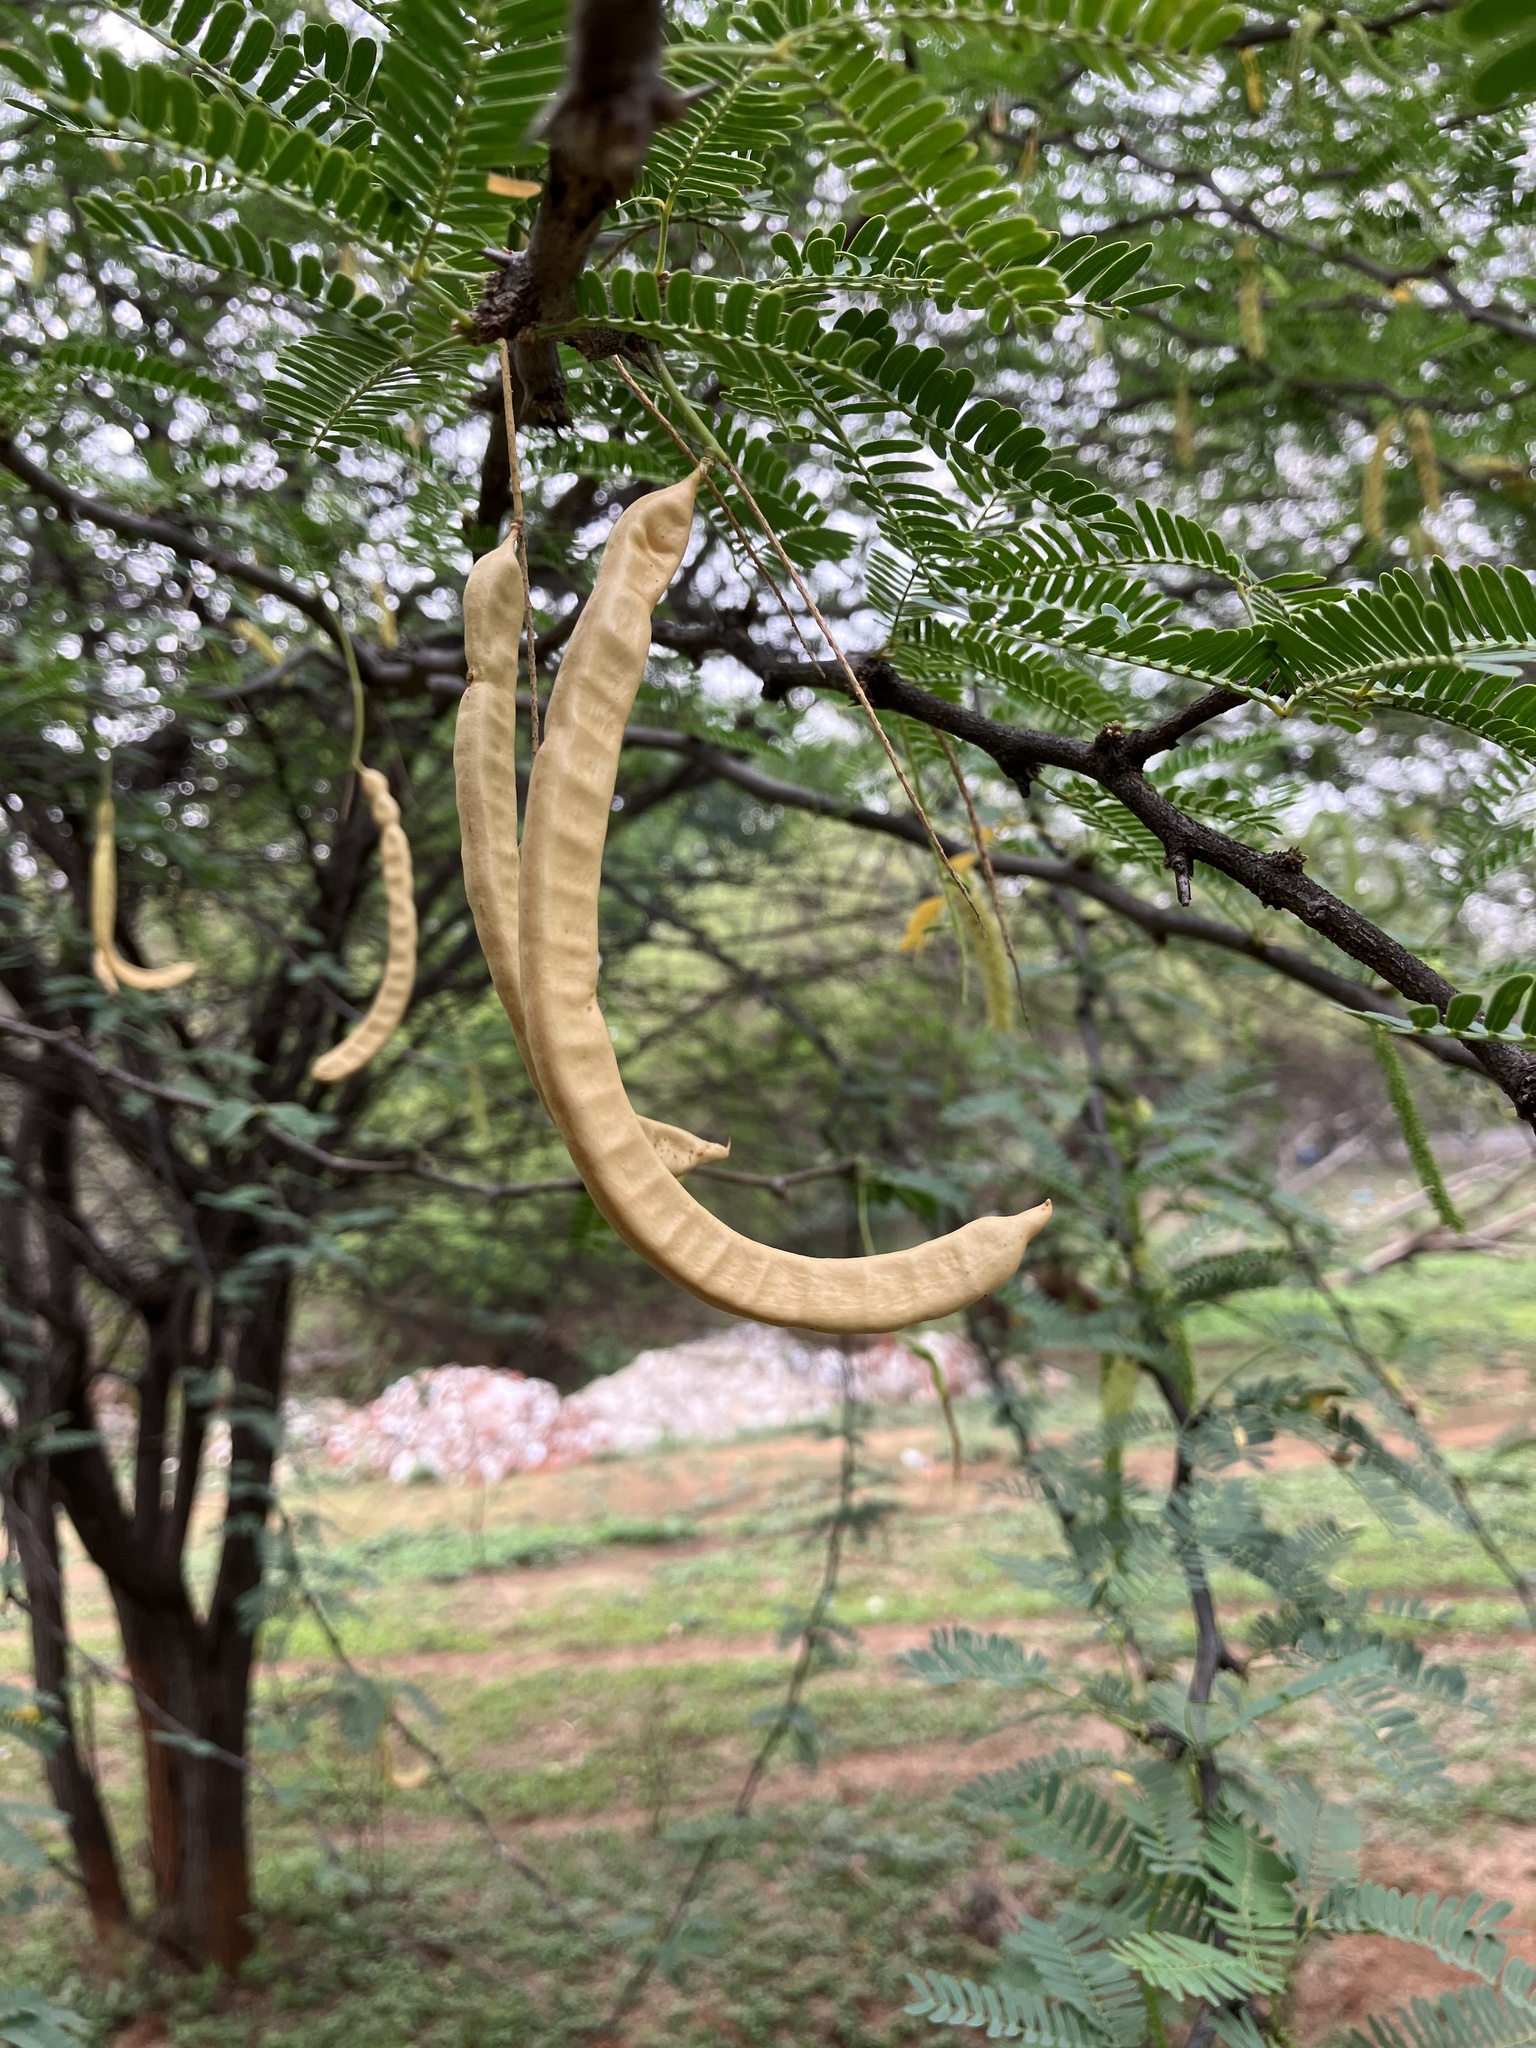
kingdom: Plantae
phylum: Tracheophyta
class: Magnoliopsida
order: Fabales
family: Fabaceae
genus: Prosopis
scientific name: Prosopis juliflora
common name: Mesquite
